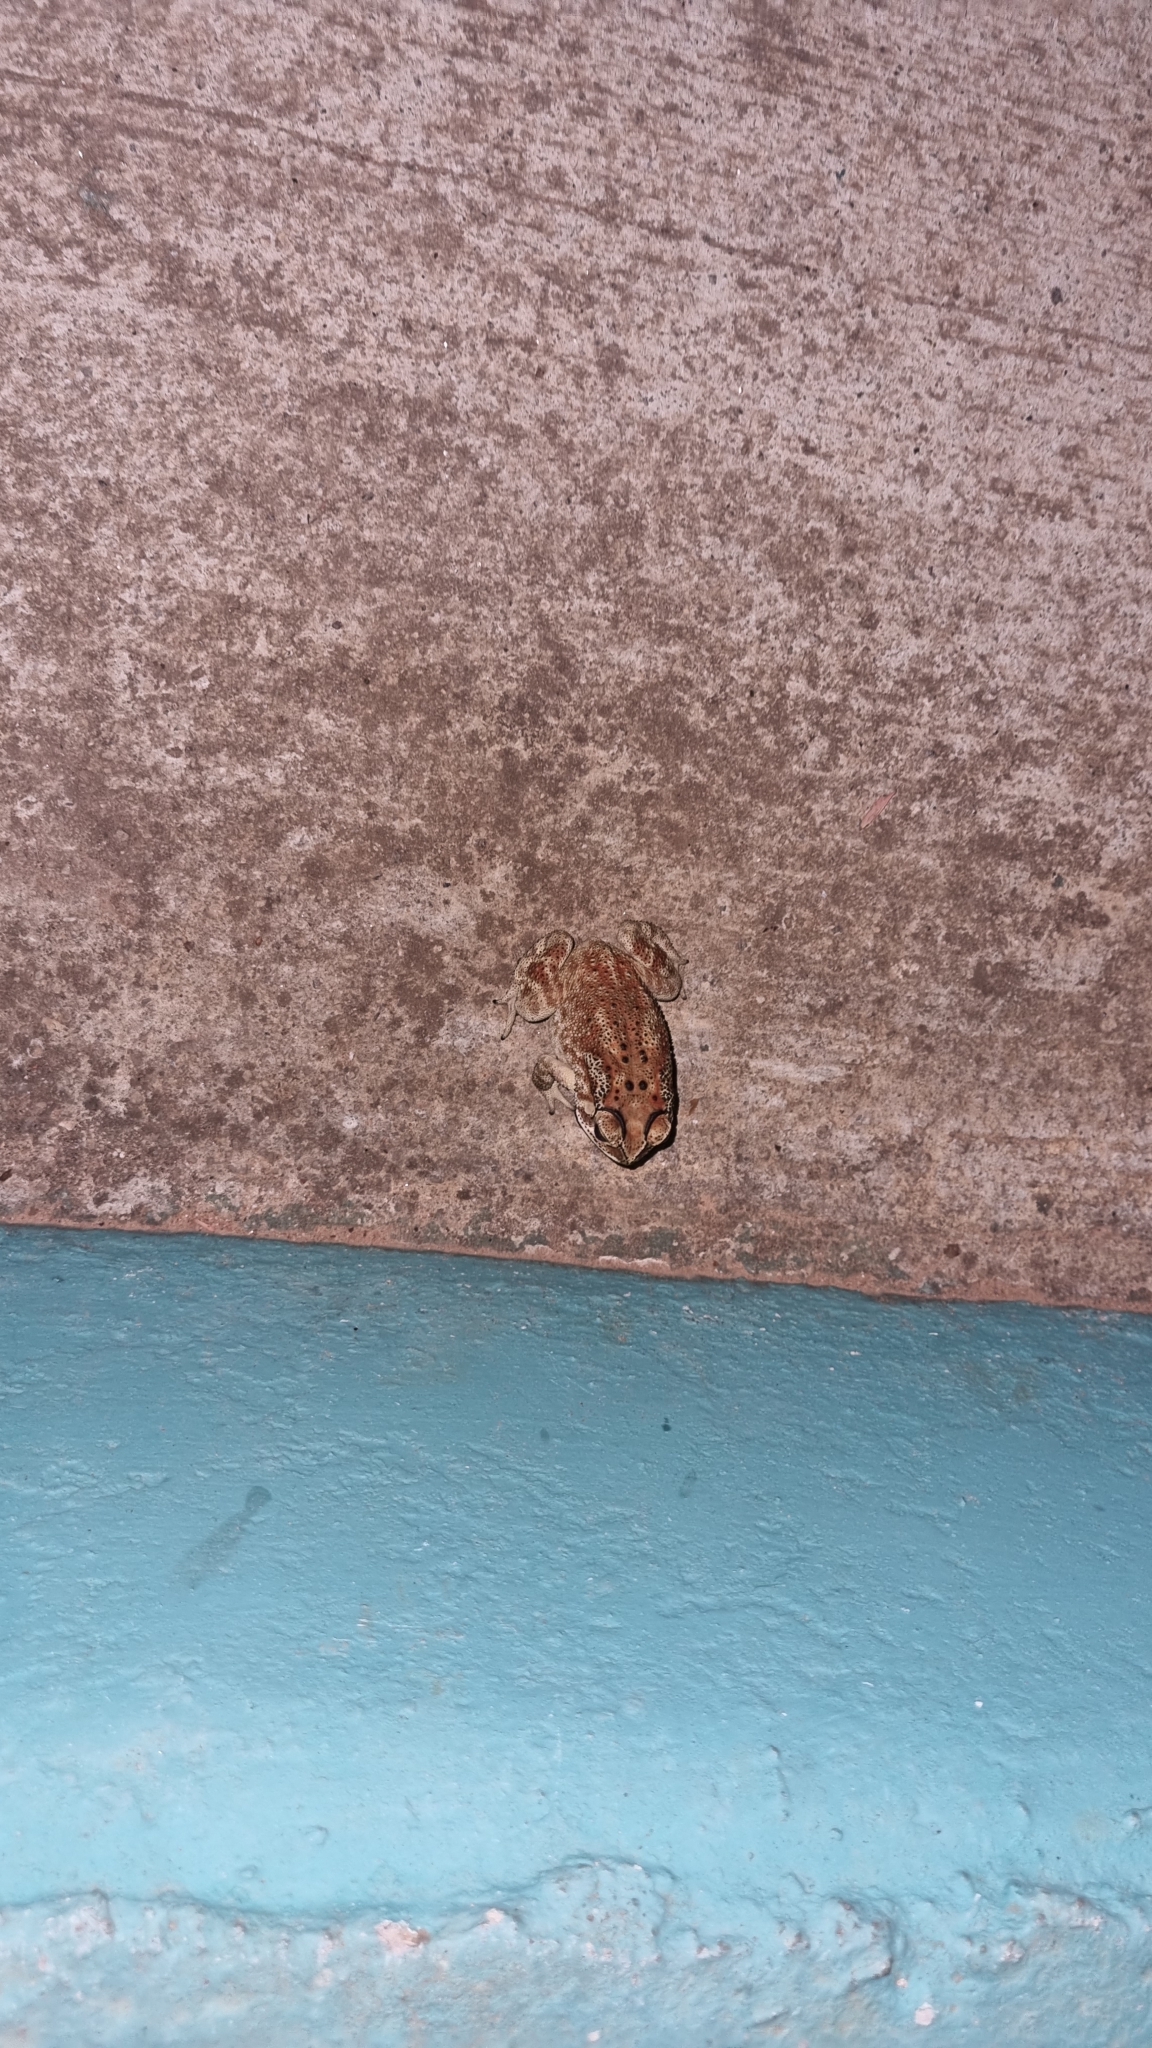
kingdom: Animalia
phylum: Chordata
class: Amphibia
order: Anura
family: Bufonidae
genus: Duttaphrynus
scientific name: Duttaphrynus melanostictus
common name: Common sunda toad
